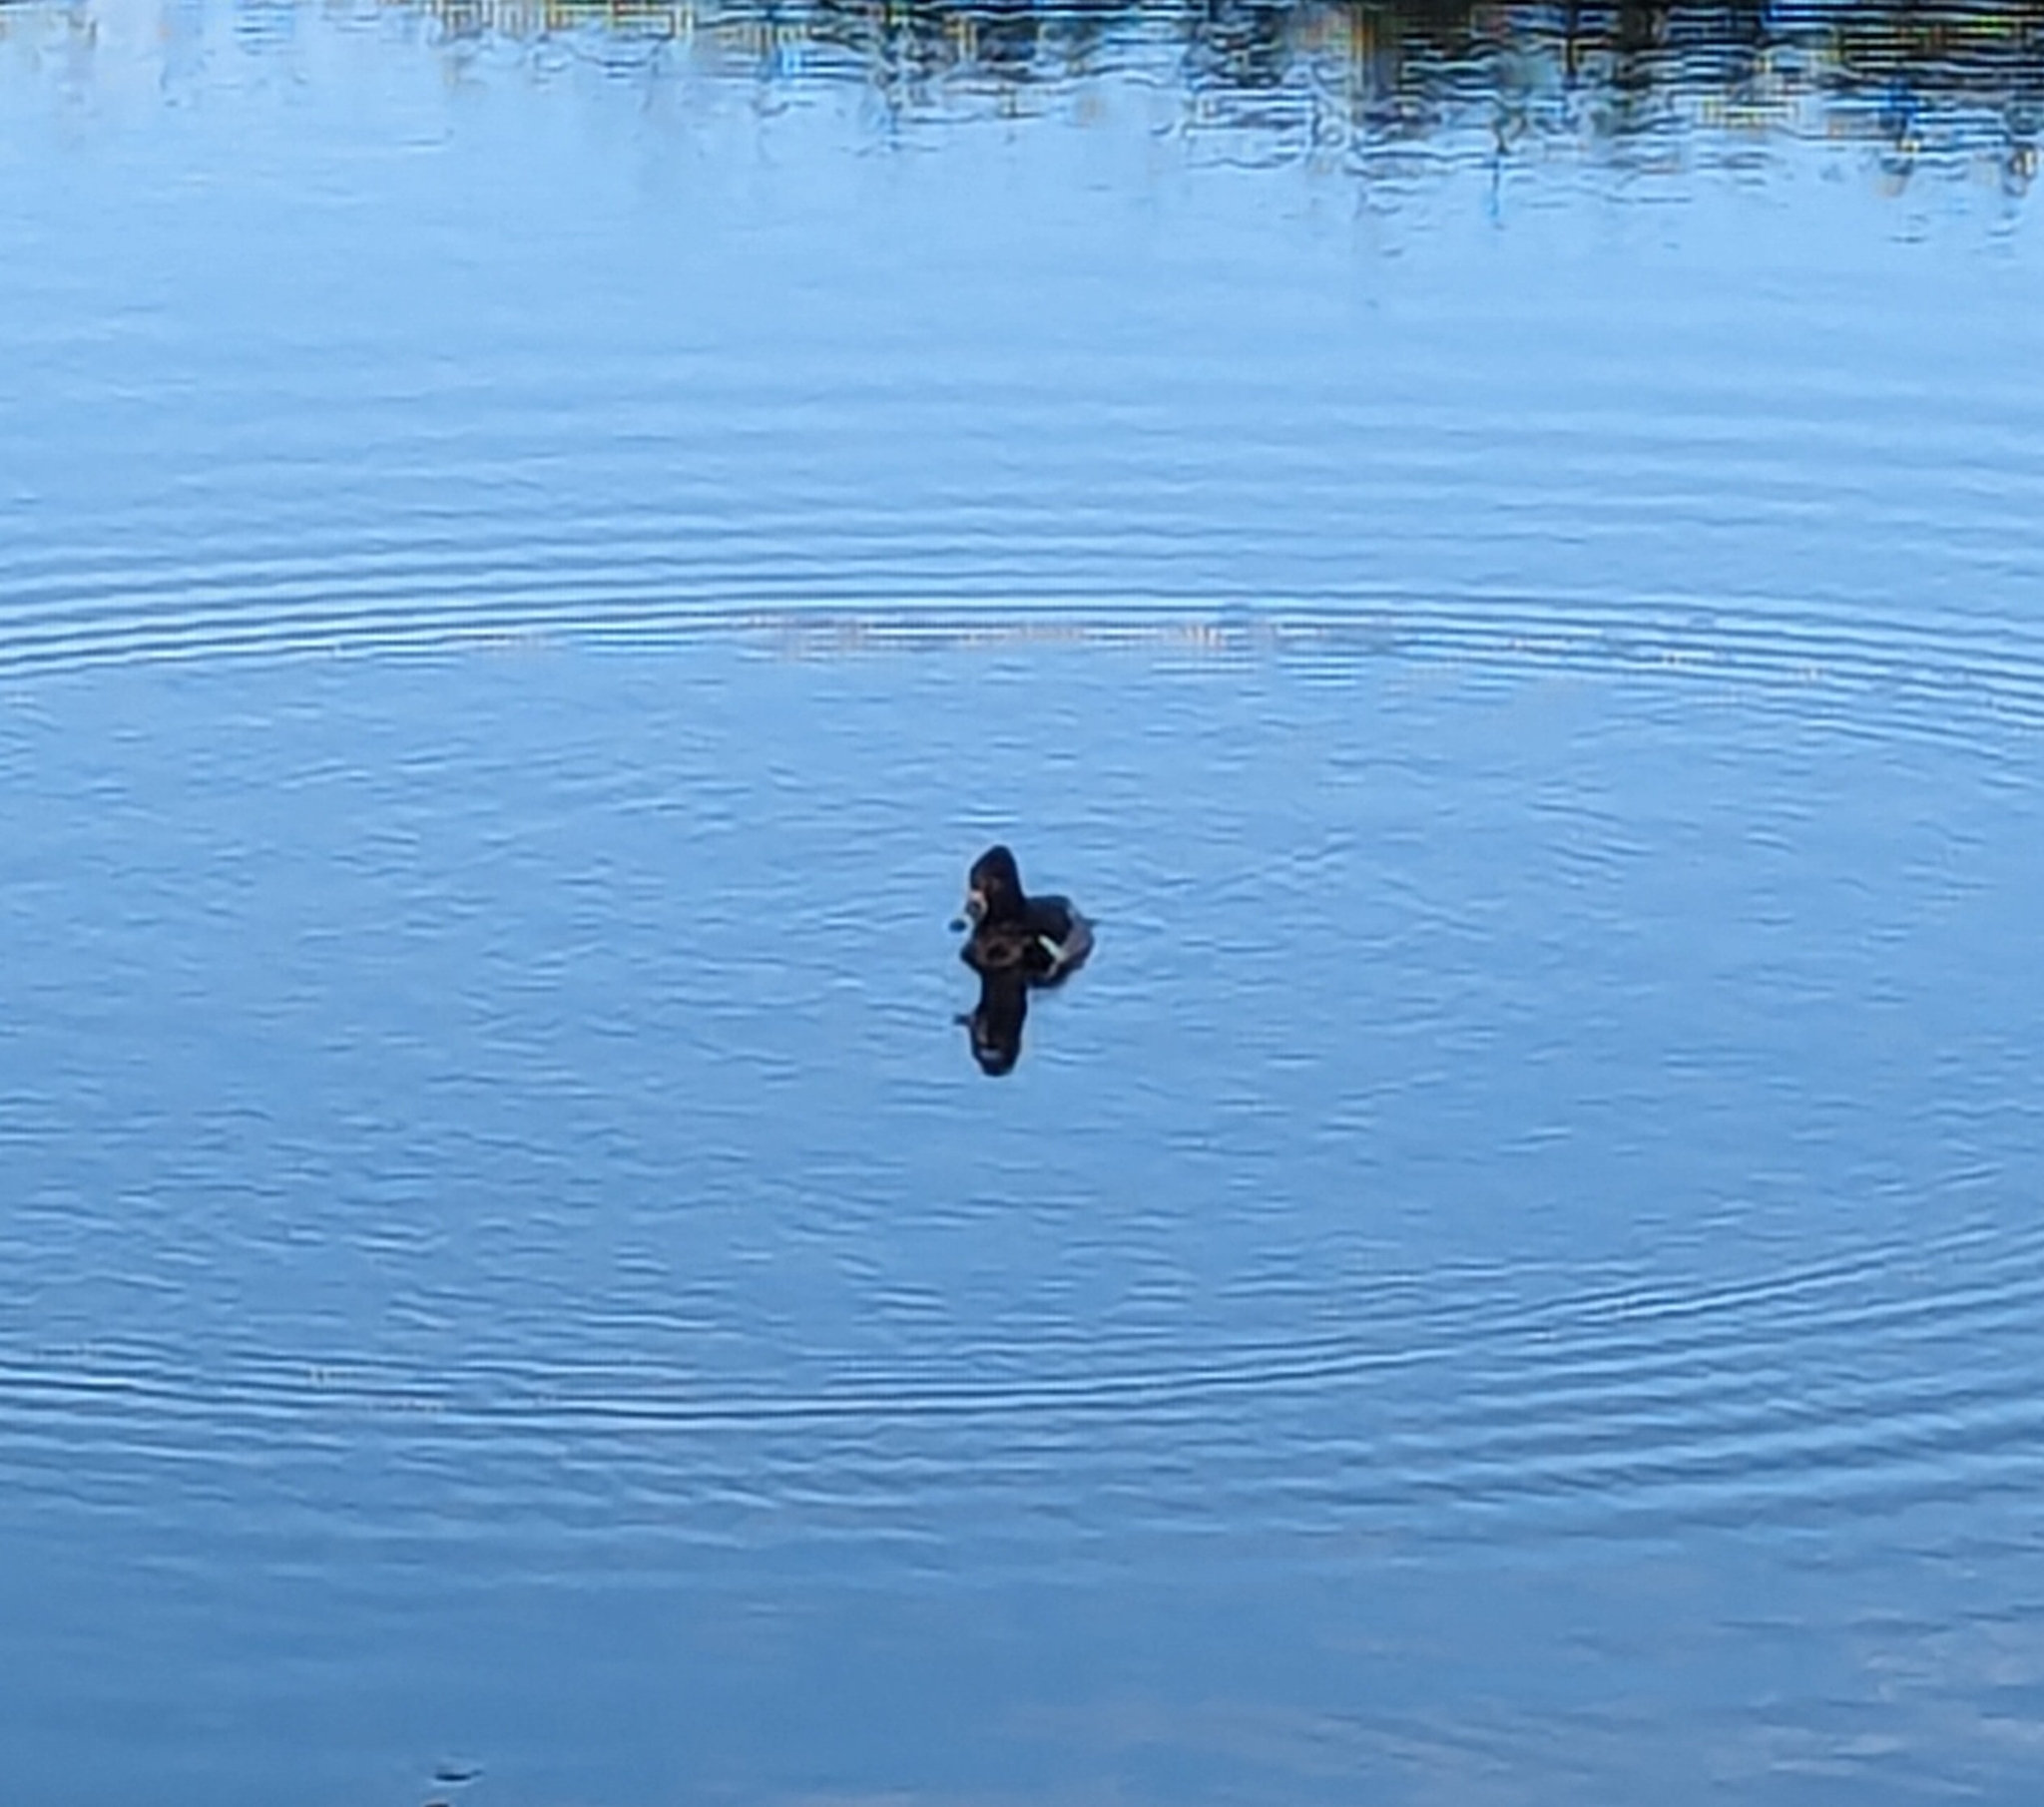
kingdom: Animalia
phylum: Chordata
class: Aves
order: Anseriformes
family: Anatidae
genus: Aythya
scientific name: Aythya collaris
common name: Ring-necked duck
